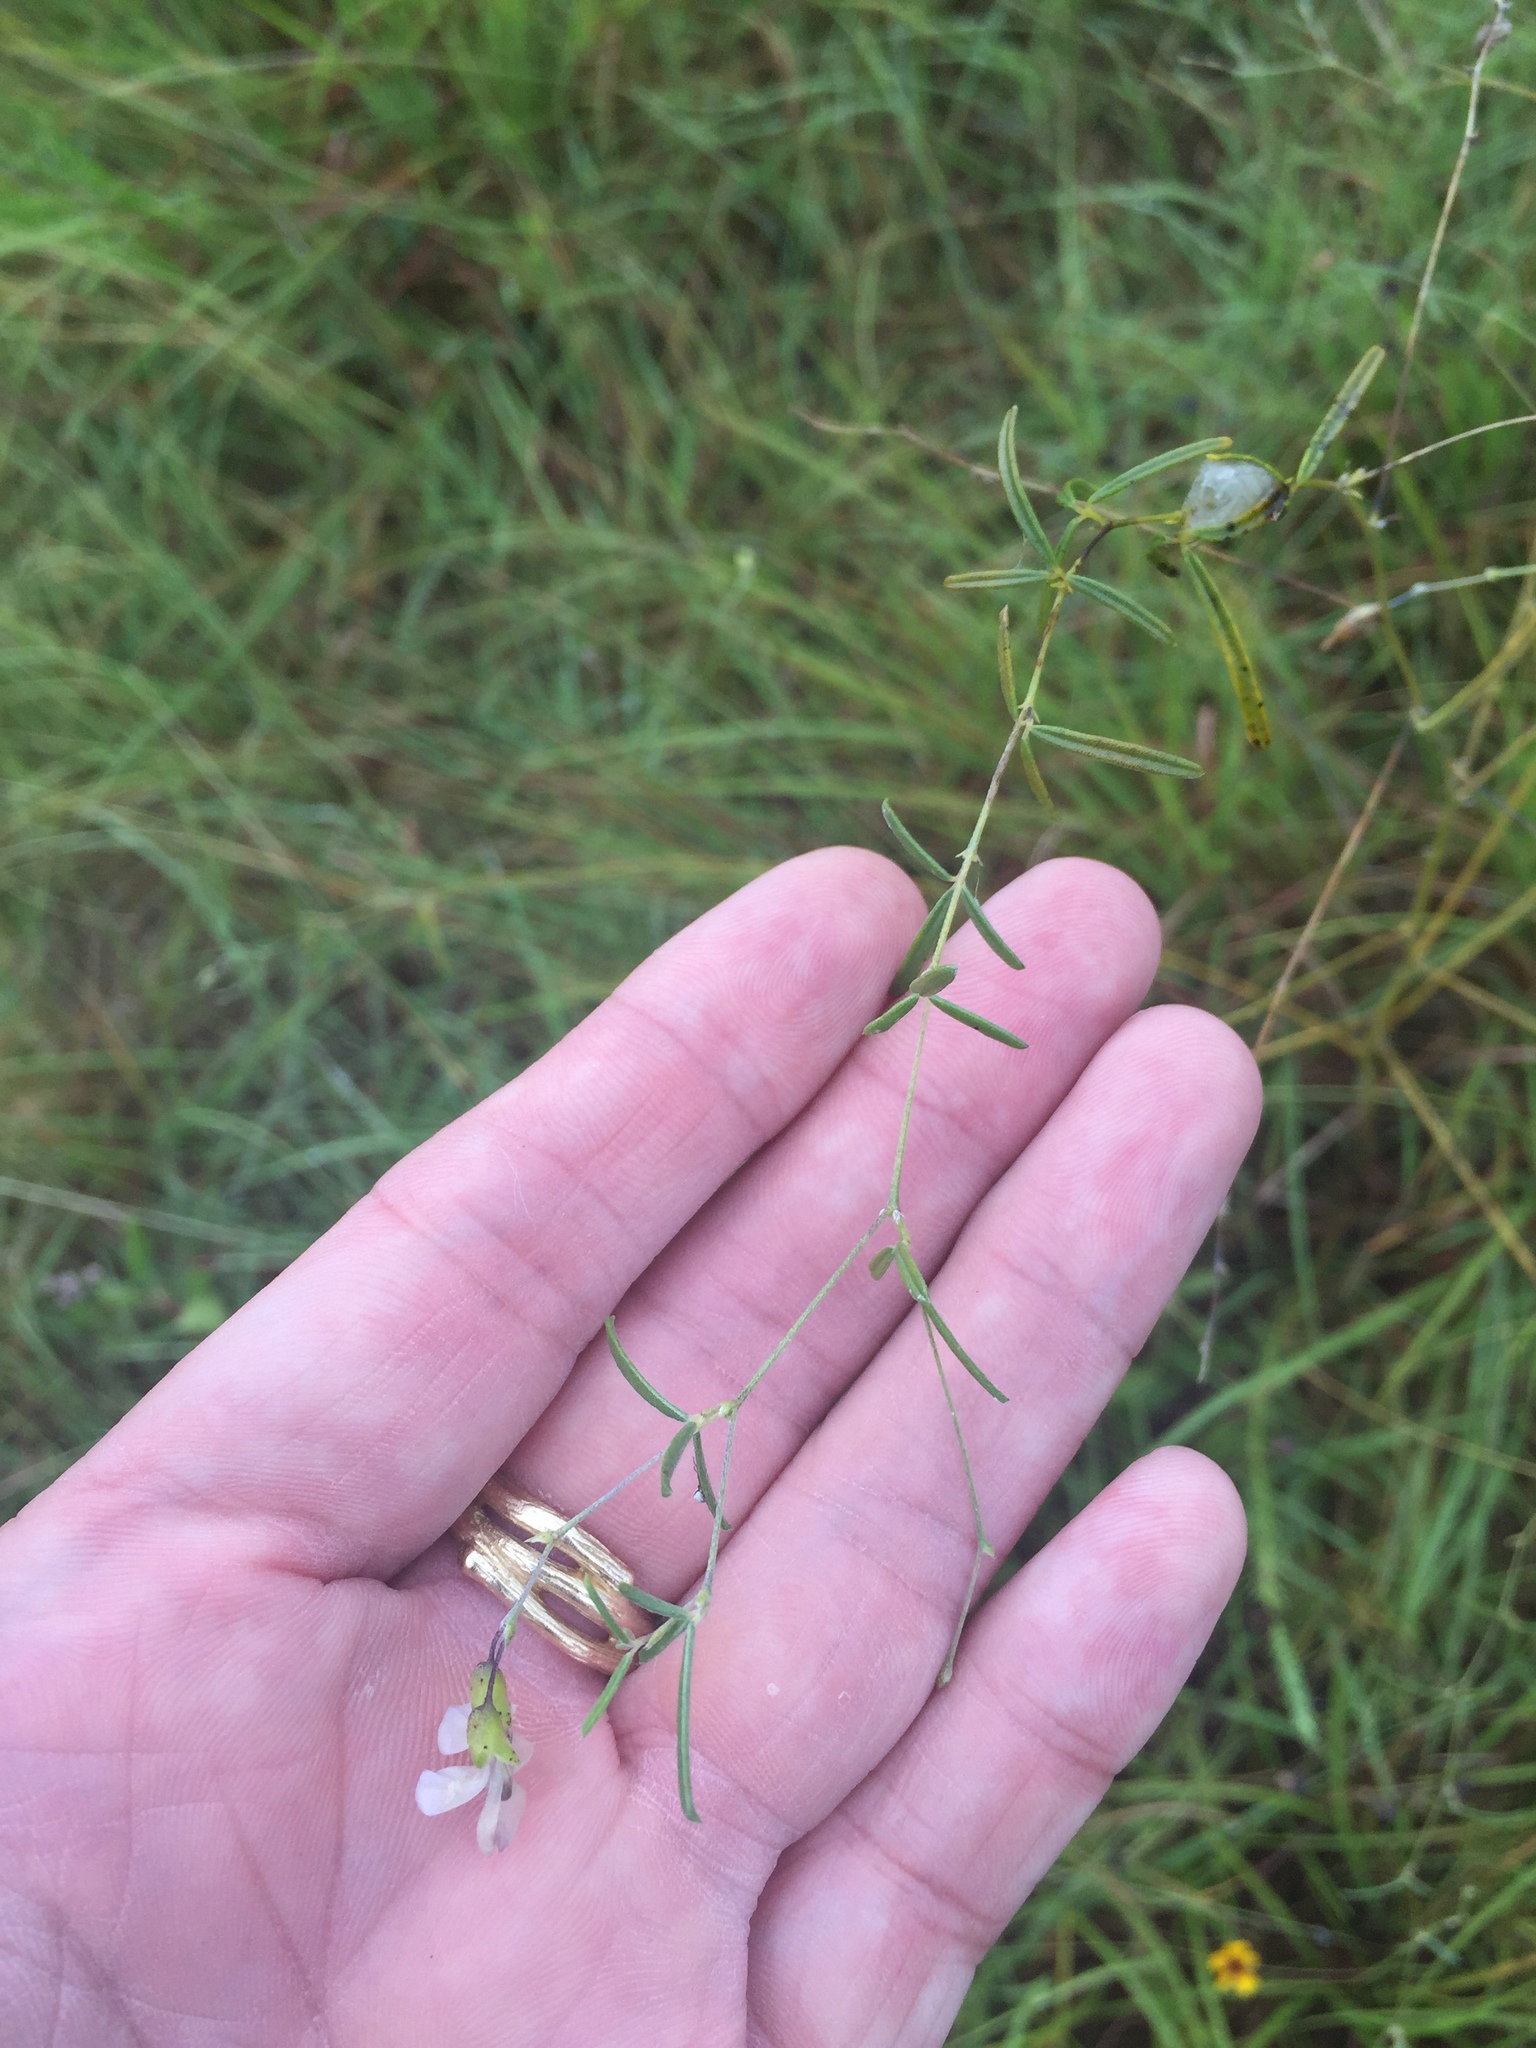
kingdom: Plantae
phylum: Tracheophyta
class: Magnoliopsida
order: Fabales
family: Fabaceae
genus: Pediomelum
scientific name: Pediomelum linearifolium
